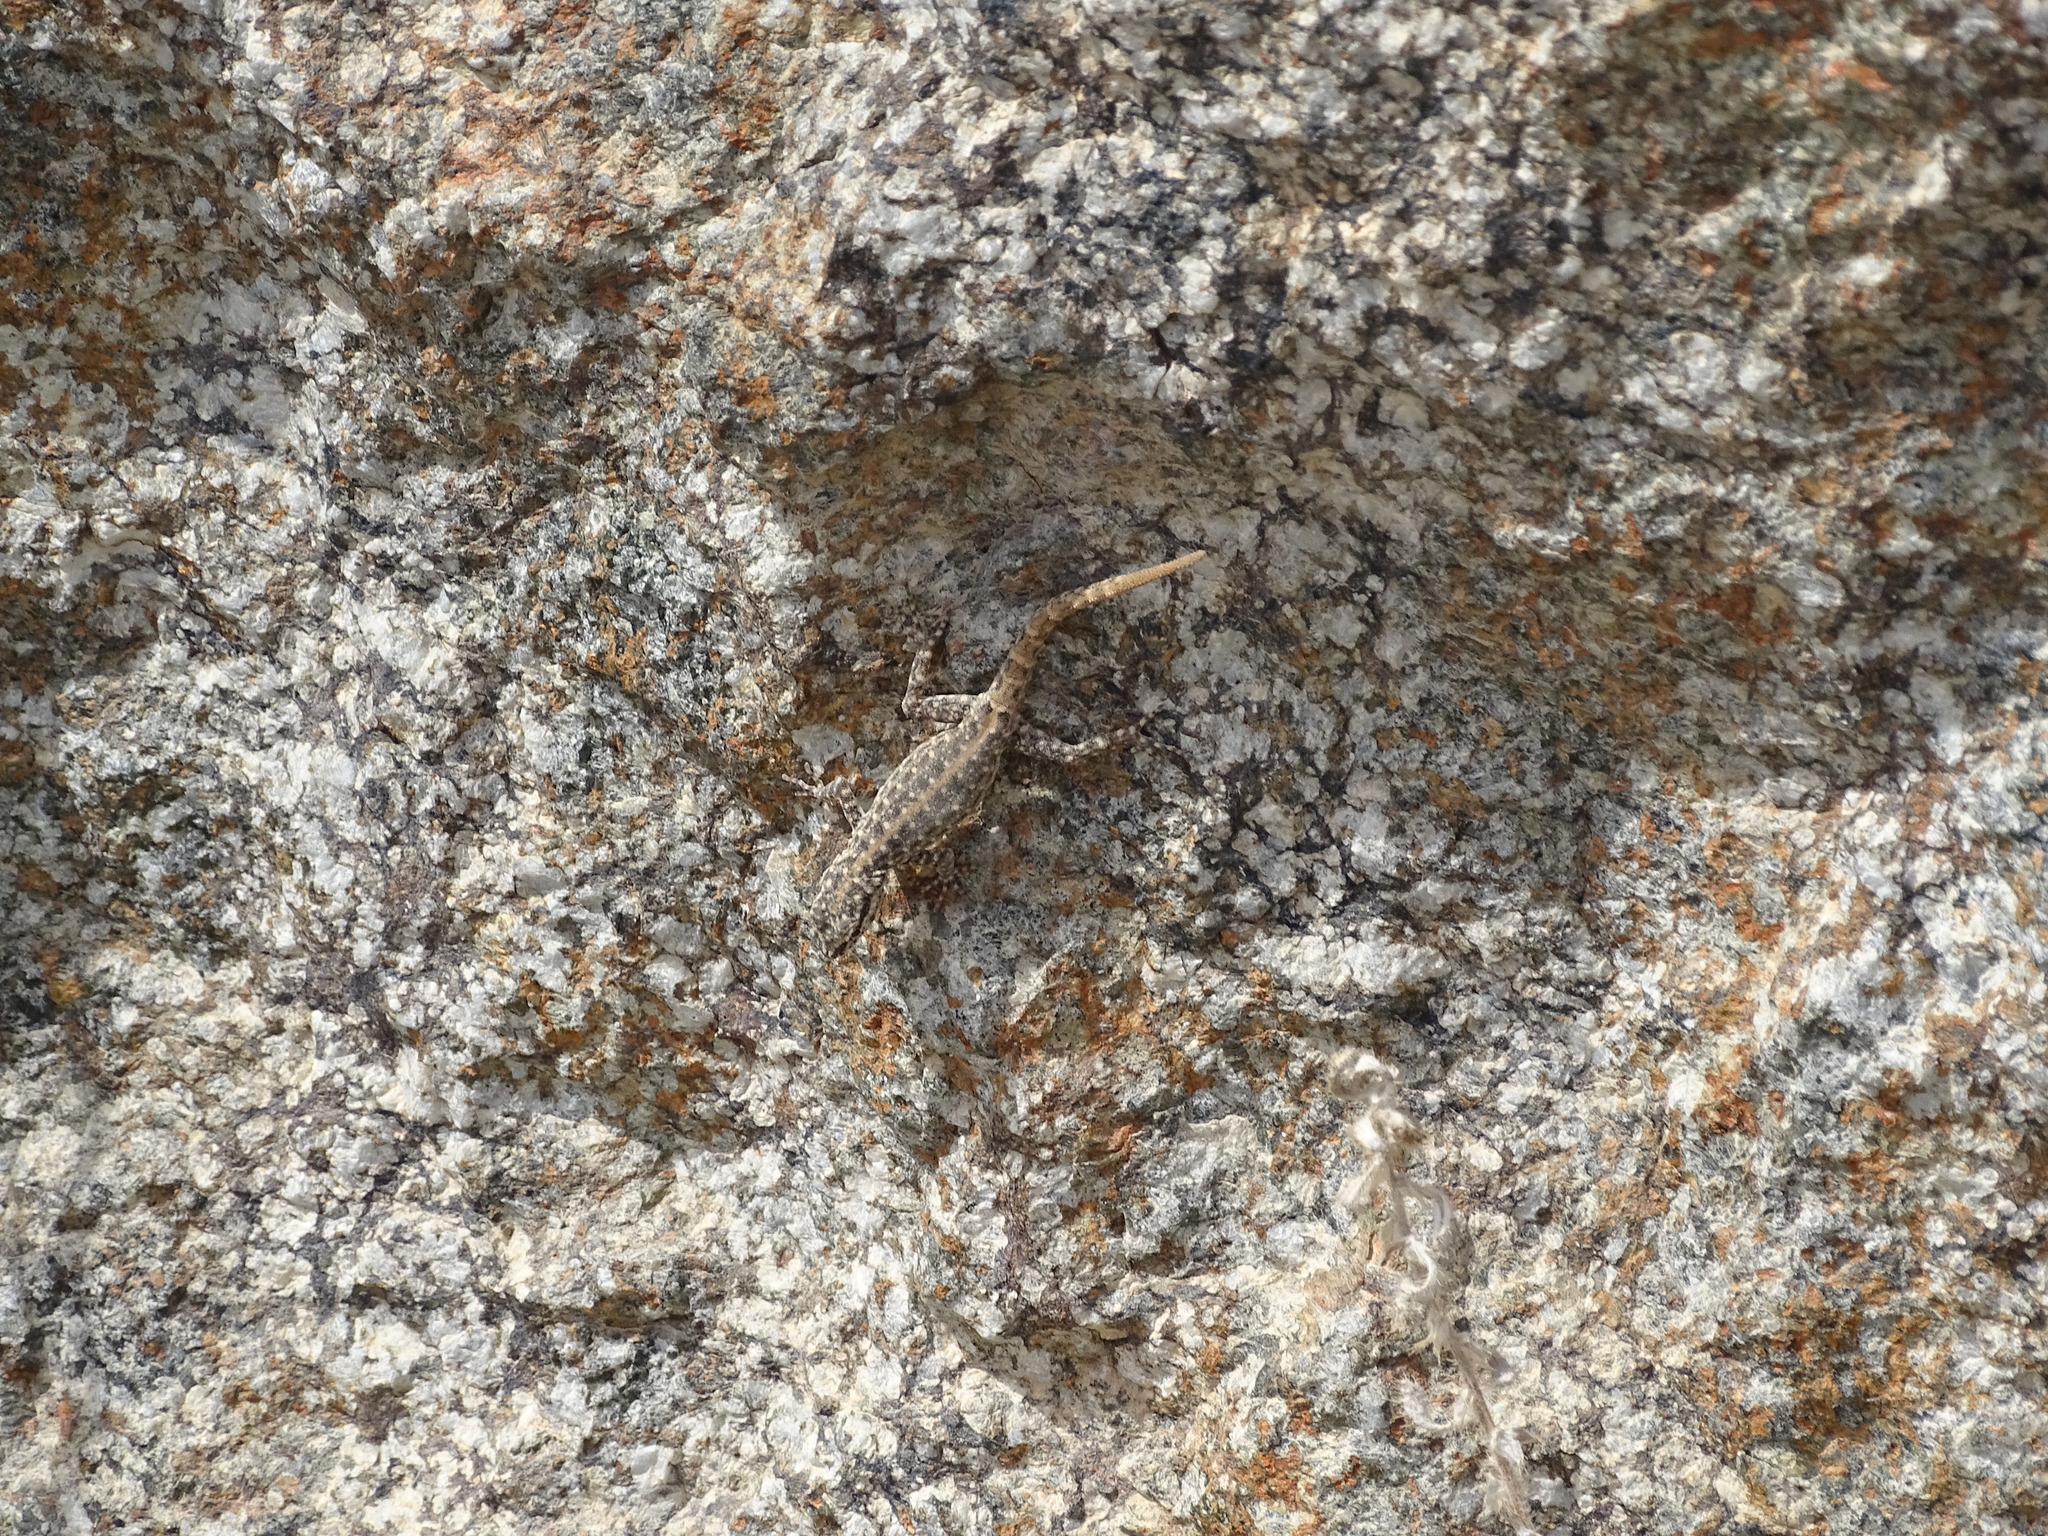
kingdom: Animalia
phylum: Chordata
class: Squamata
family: Sphaerodactylidae
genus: Pristurus
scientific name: Pristurus rupestris
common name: Blanford’s semaphore gecko
